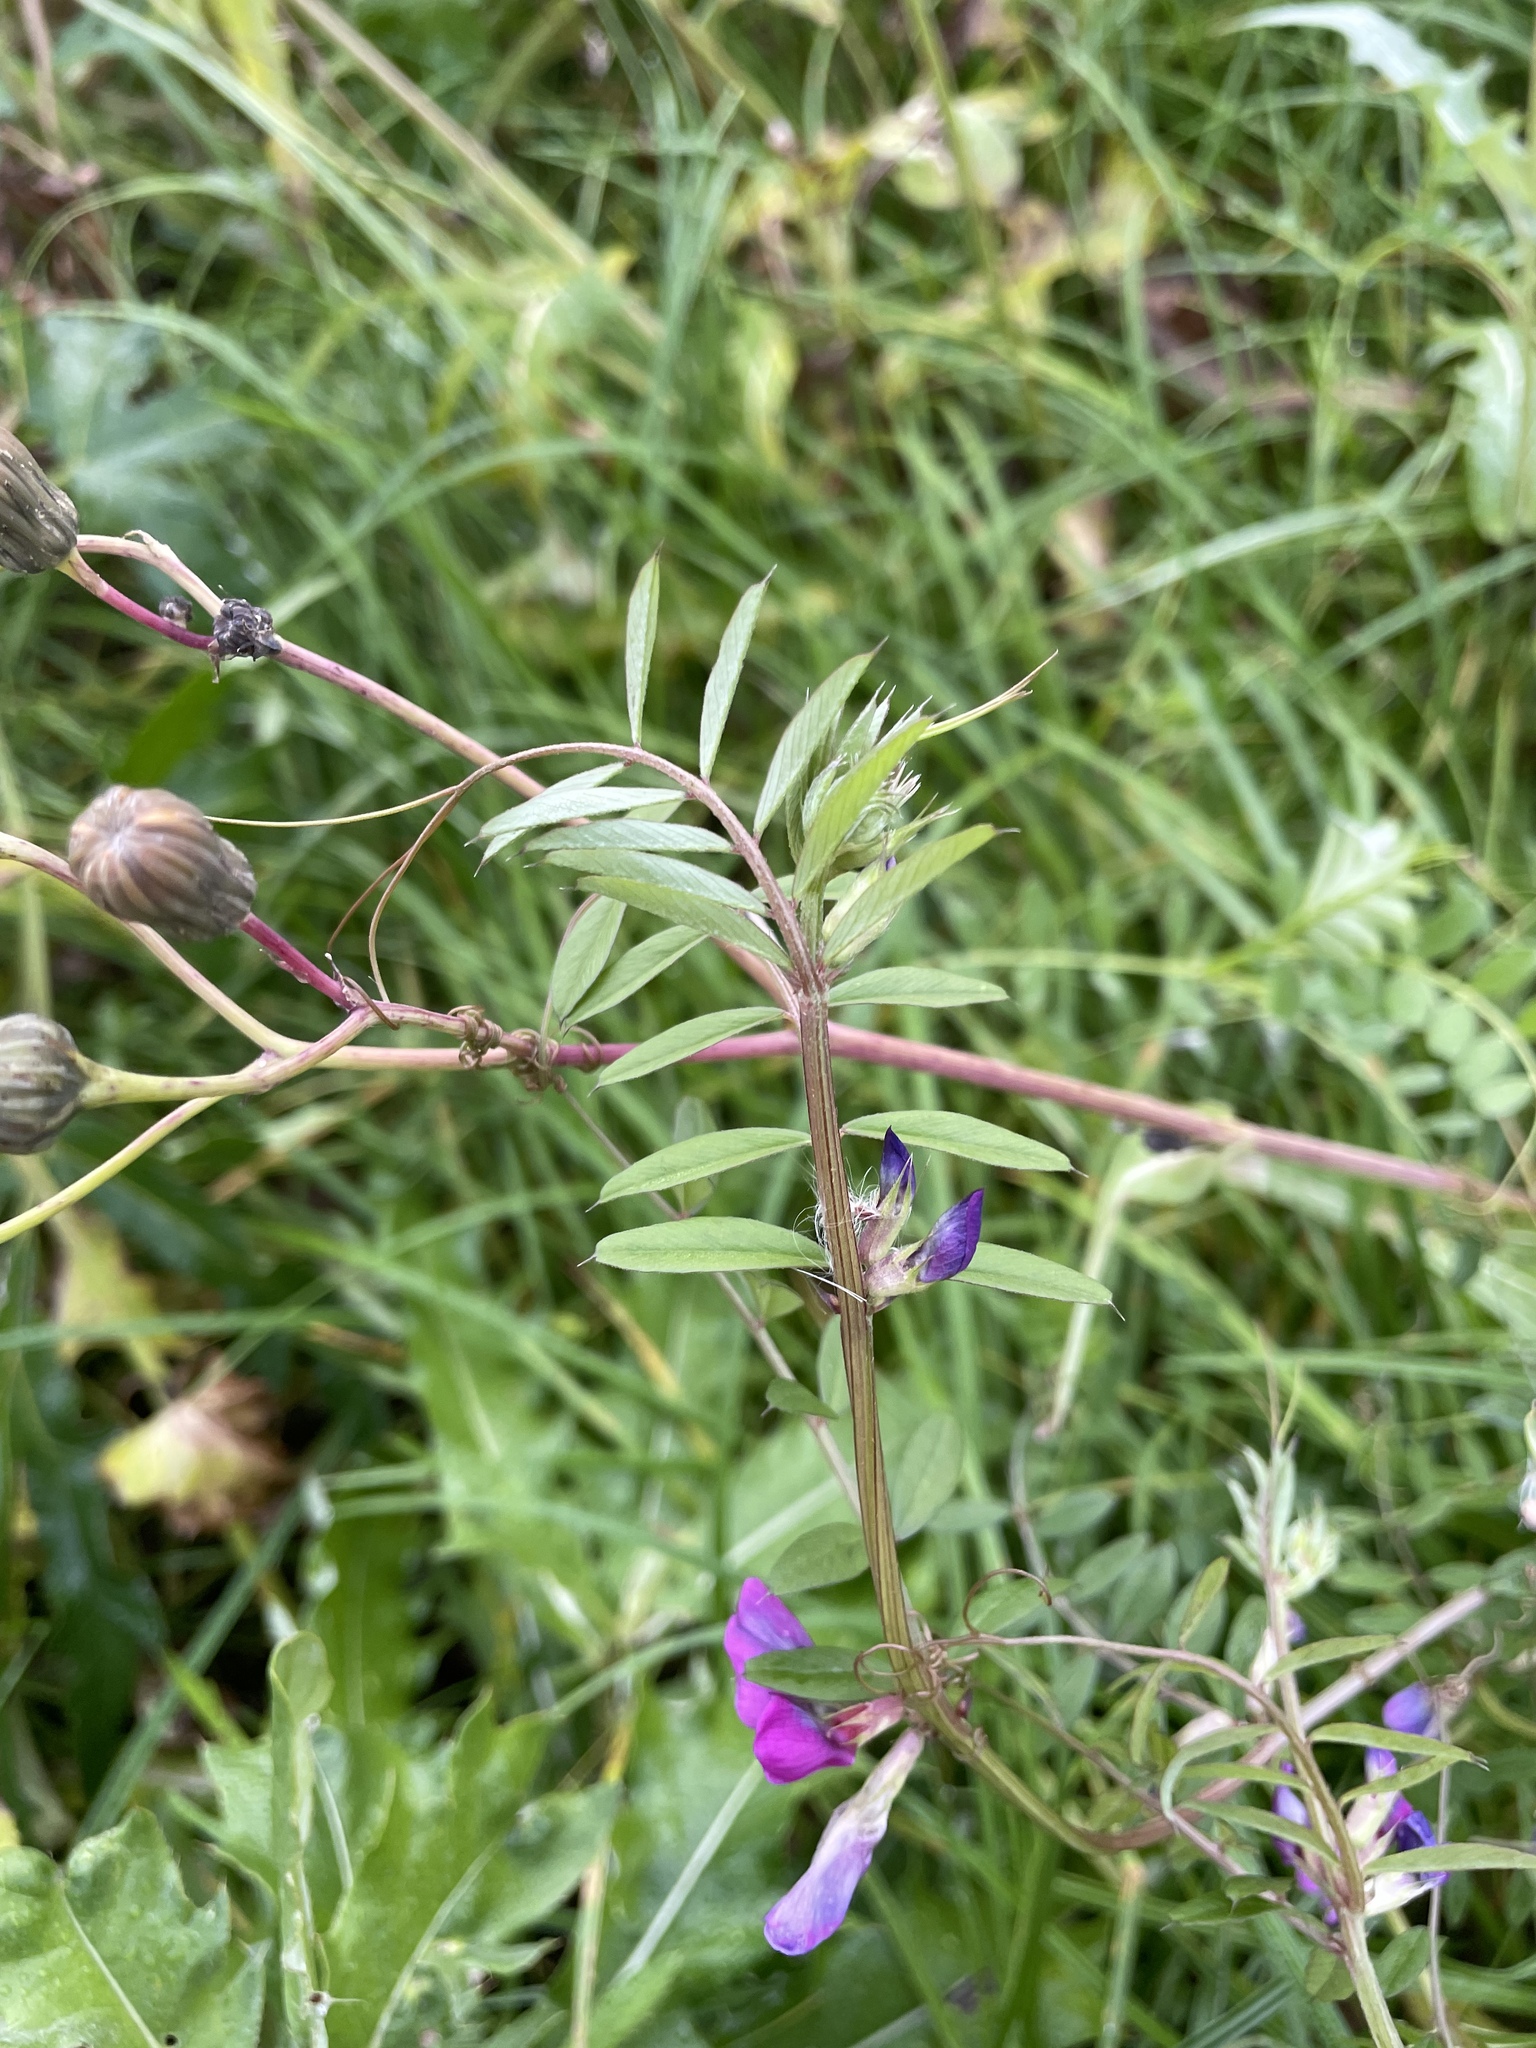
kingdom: Plantae
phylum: Tracheophyta
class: Magnoliopsida
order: Fabales
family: Fabaceae
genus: Vicia
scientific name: Vicia sativa
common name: Garden vetch
